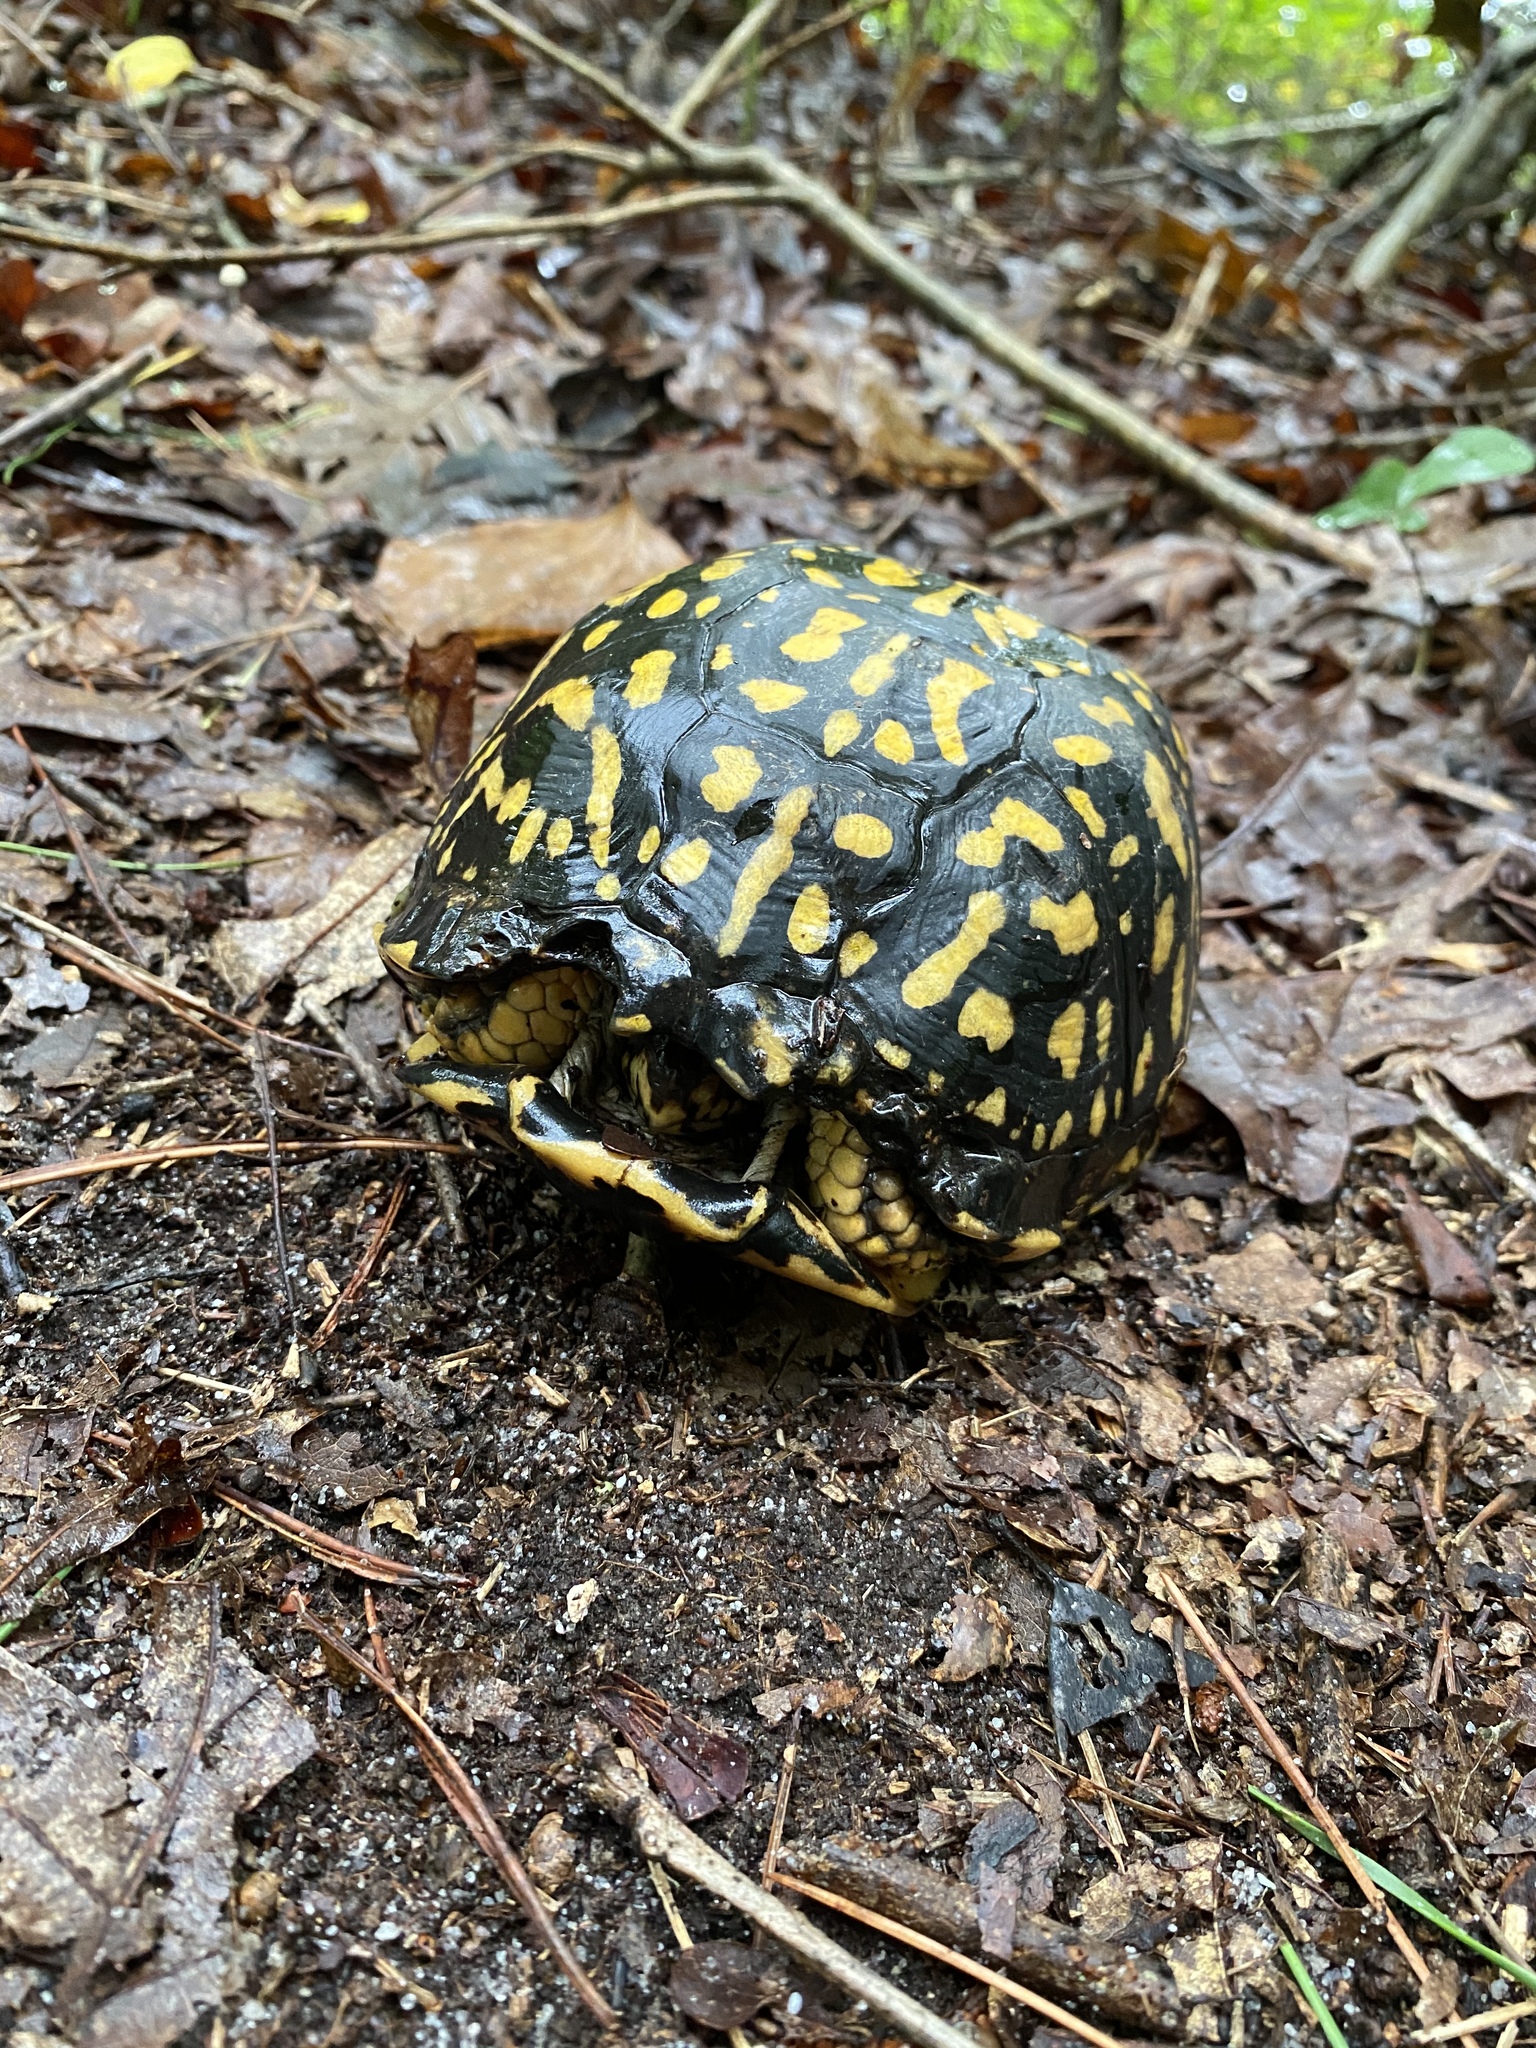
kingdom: Animalia
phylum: Chordata
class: Testudines
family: Emydidae
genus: Terrapene
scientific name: Terrapene carolina
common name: Common box turtle
